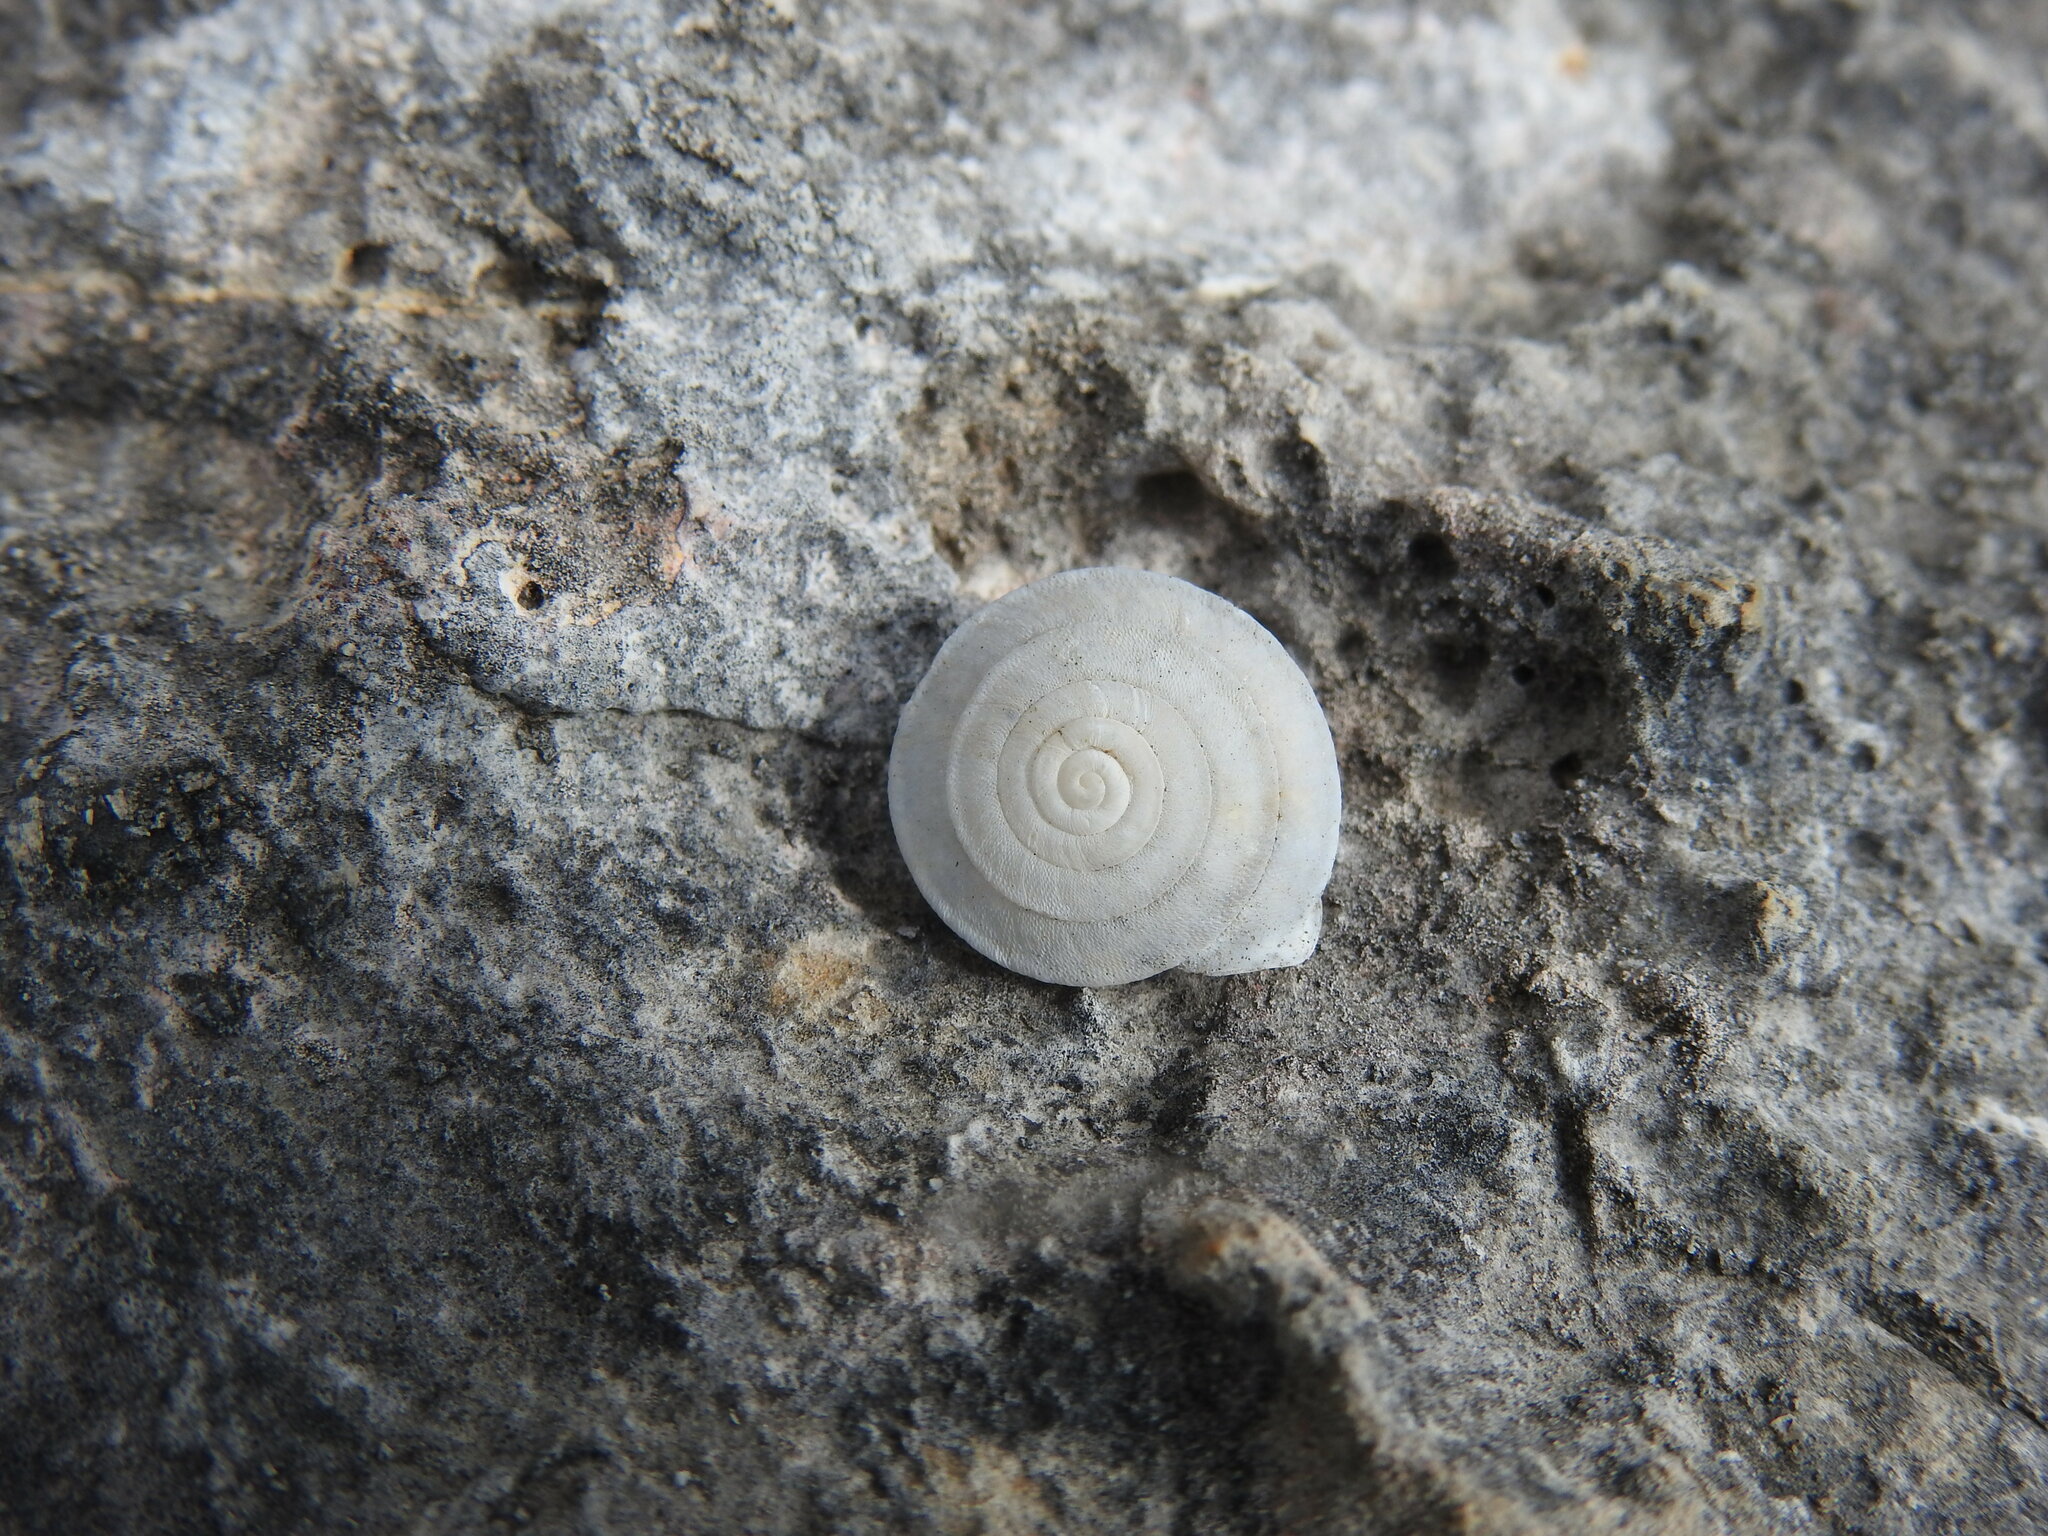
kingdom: Animalia
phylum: Mollusca
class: Gastropoda
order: Stylommatophora
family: Trissexodontidae
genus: Gittenbergeria
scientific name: Gittenbergeria turriplana
